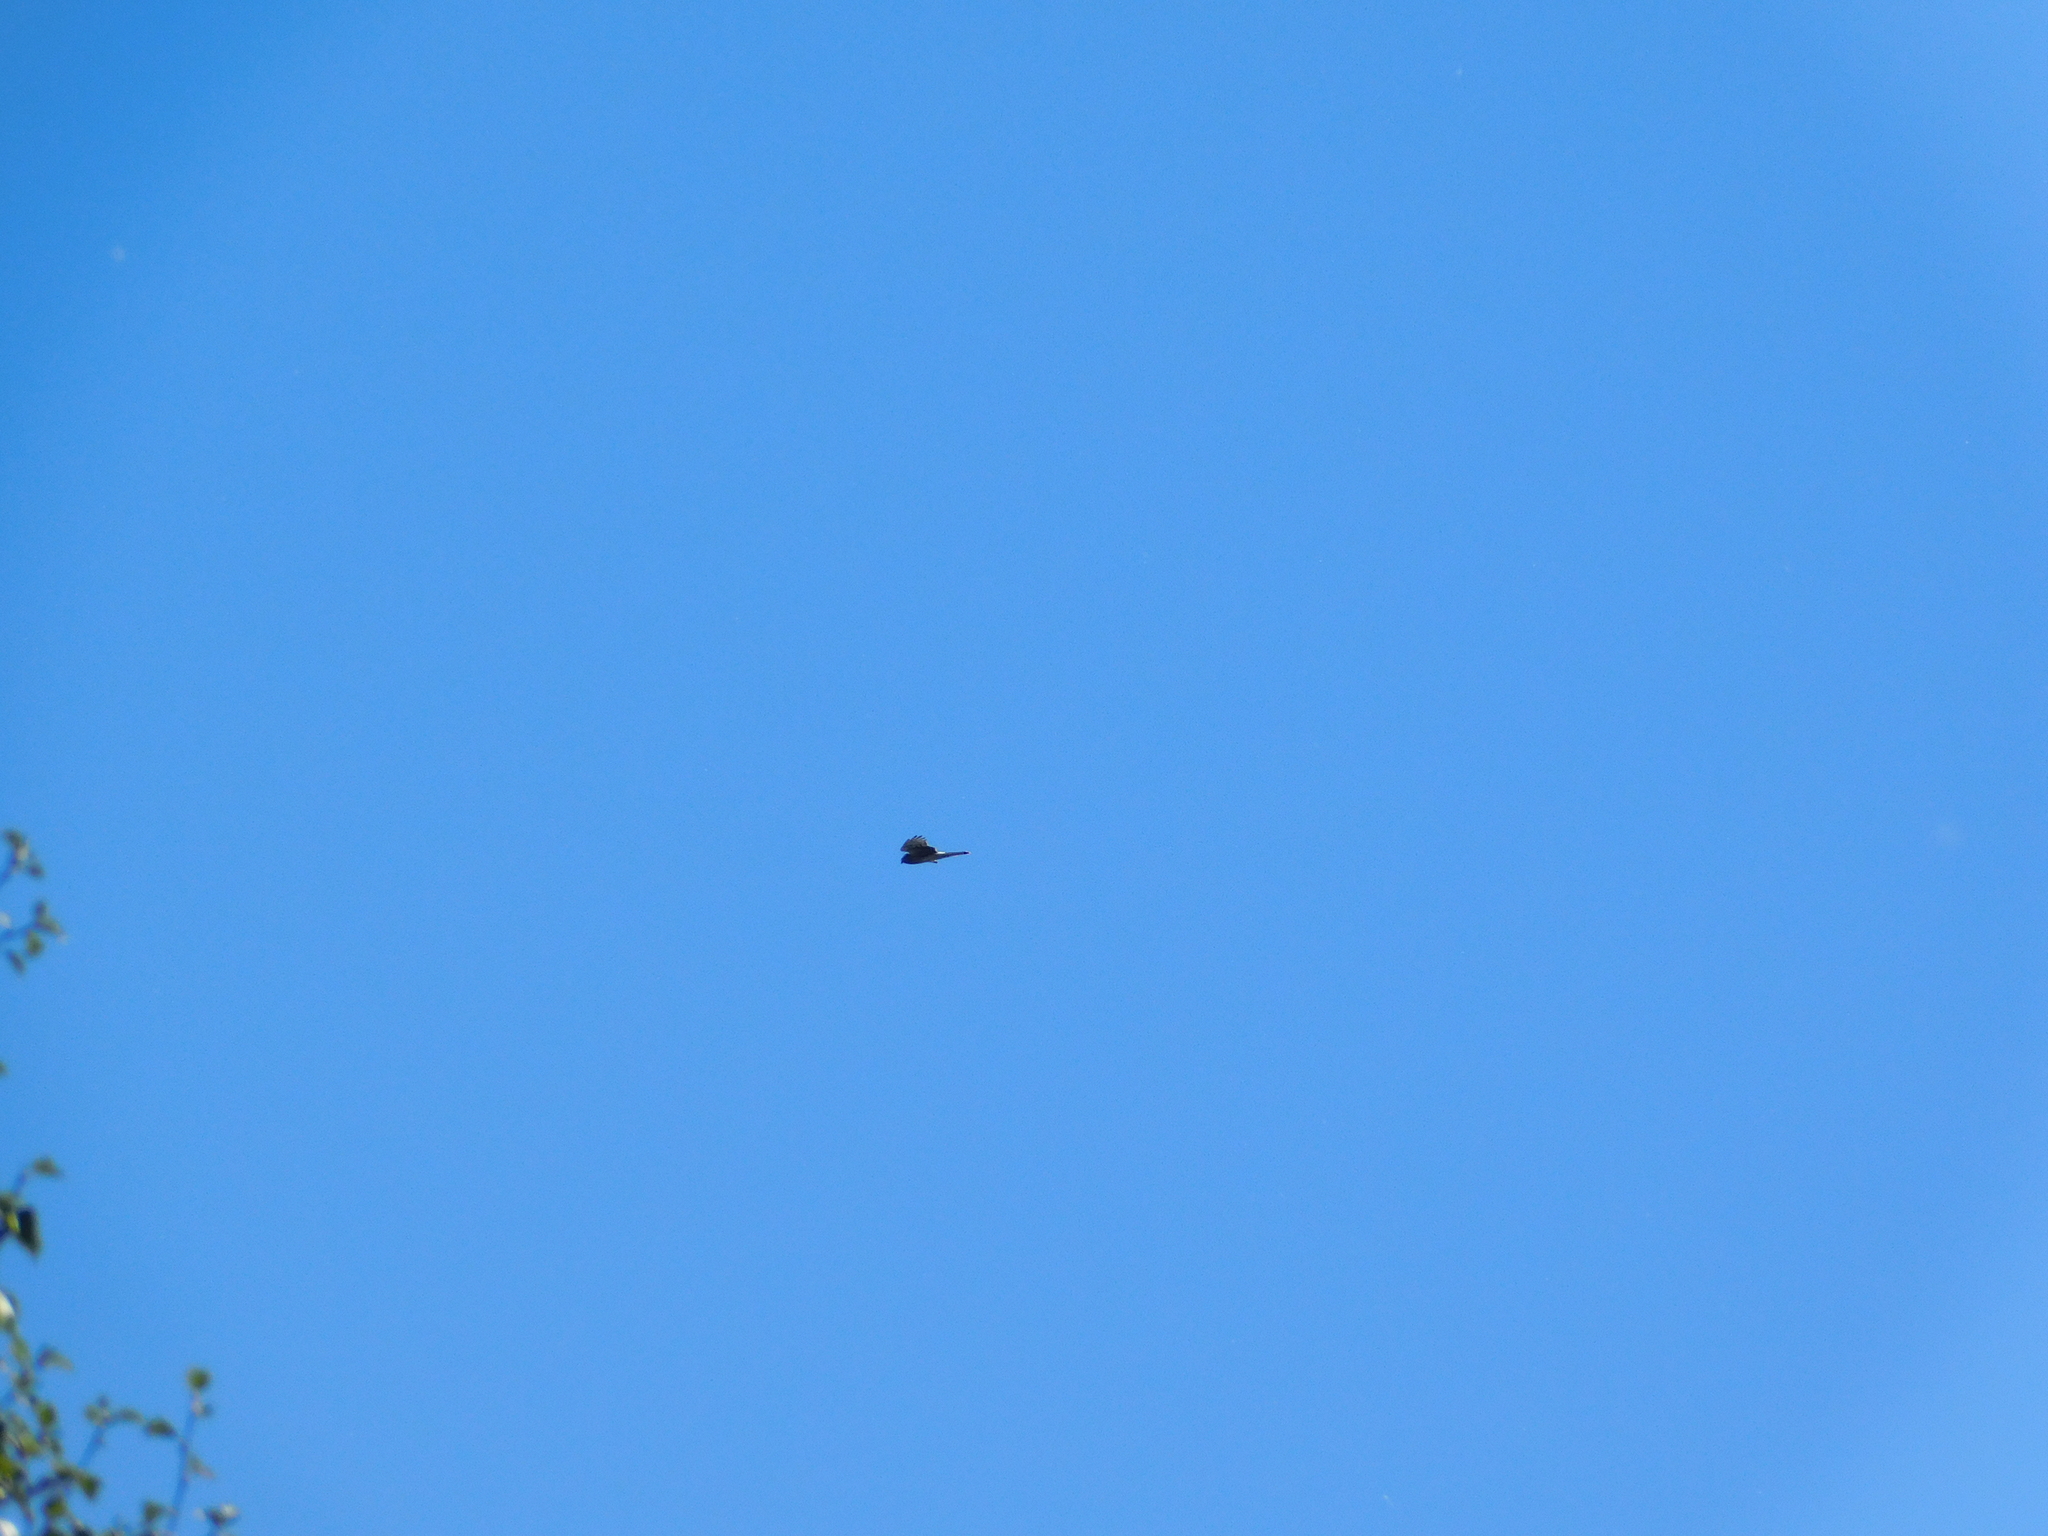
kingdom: Animalia
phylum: Chordata
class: Aves
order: Accipitriformes
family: Accipitridae
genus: Circus
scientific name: Circus cyaneus
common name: Hen harrier
